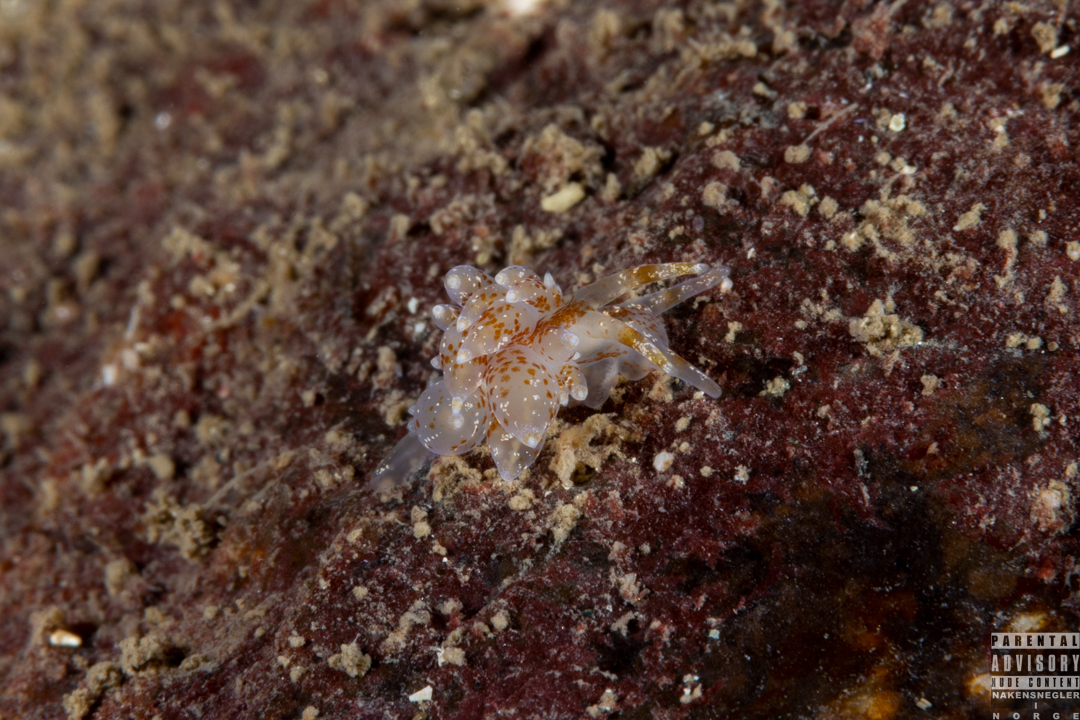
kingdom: Animalia
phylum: Mollusca
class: Gastropoda
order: Nudibranchia
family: Eubranchidae
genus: Amphorina
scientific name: Amphorina pallida
